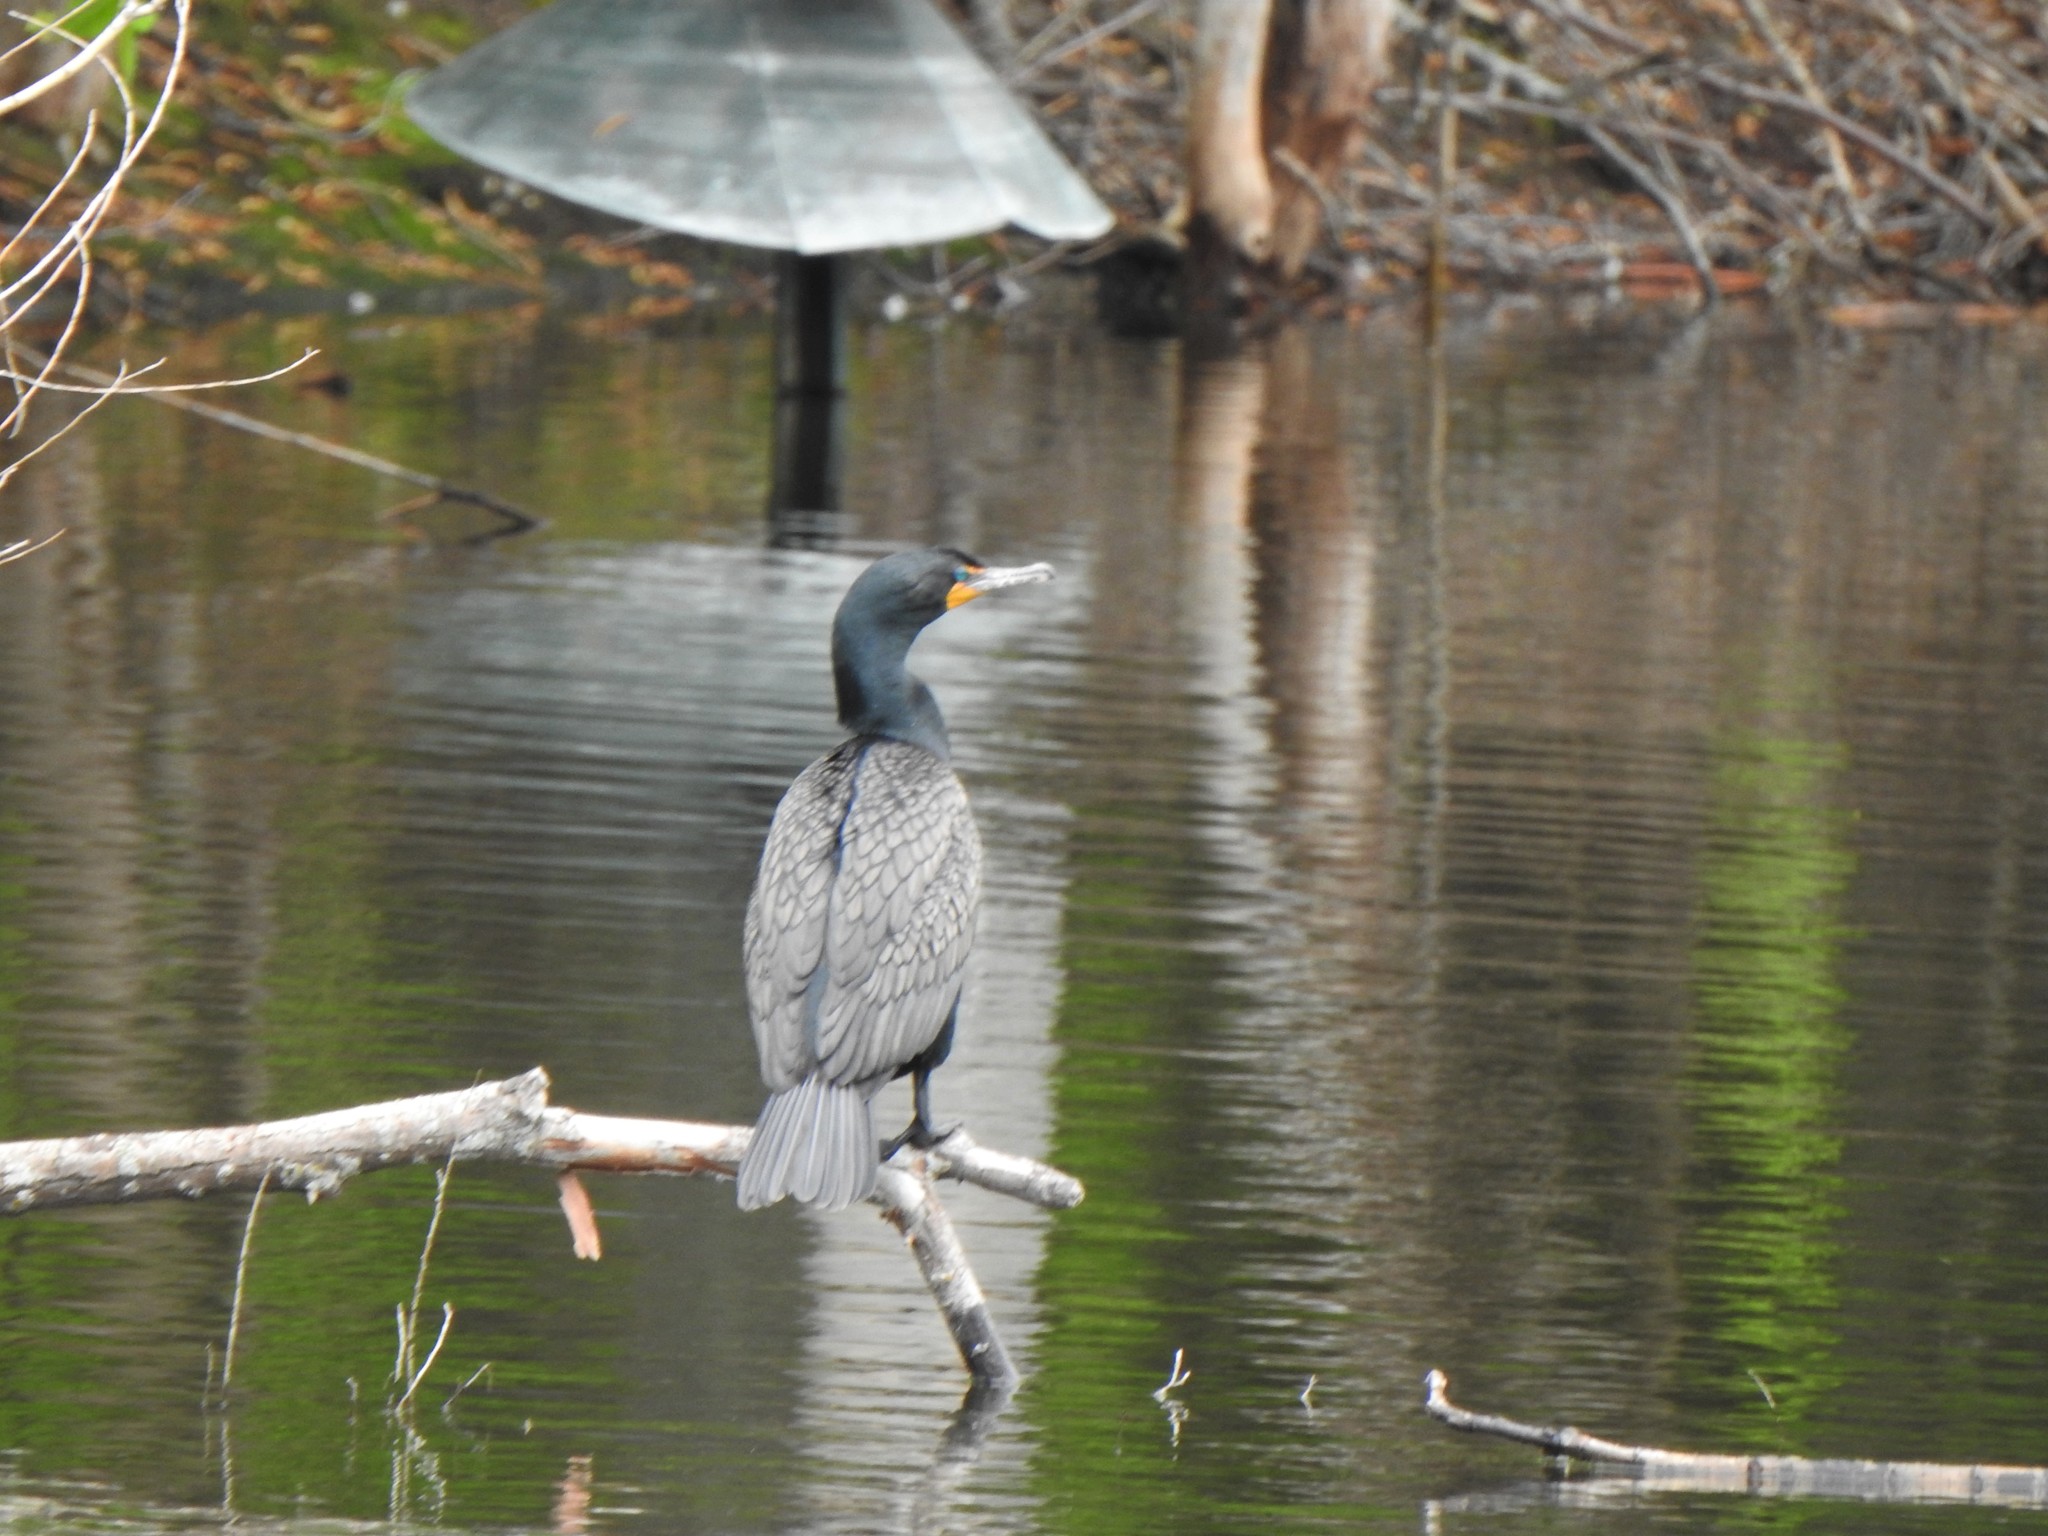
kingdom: Animalia
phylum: Chordata
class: Aves
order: Suliformes
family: Phalacrocoracidae
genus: Phalacrocorax
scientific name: Phalacrocorax auritus
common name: Double-crested cormorant
